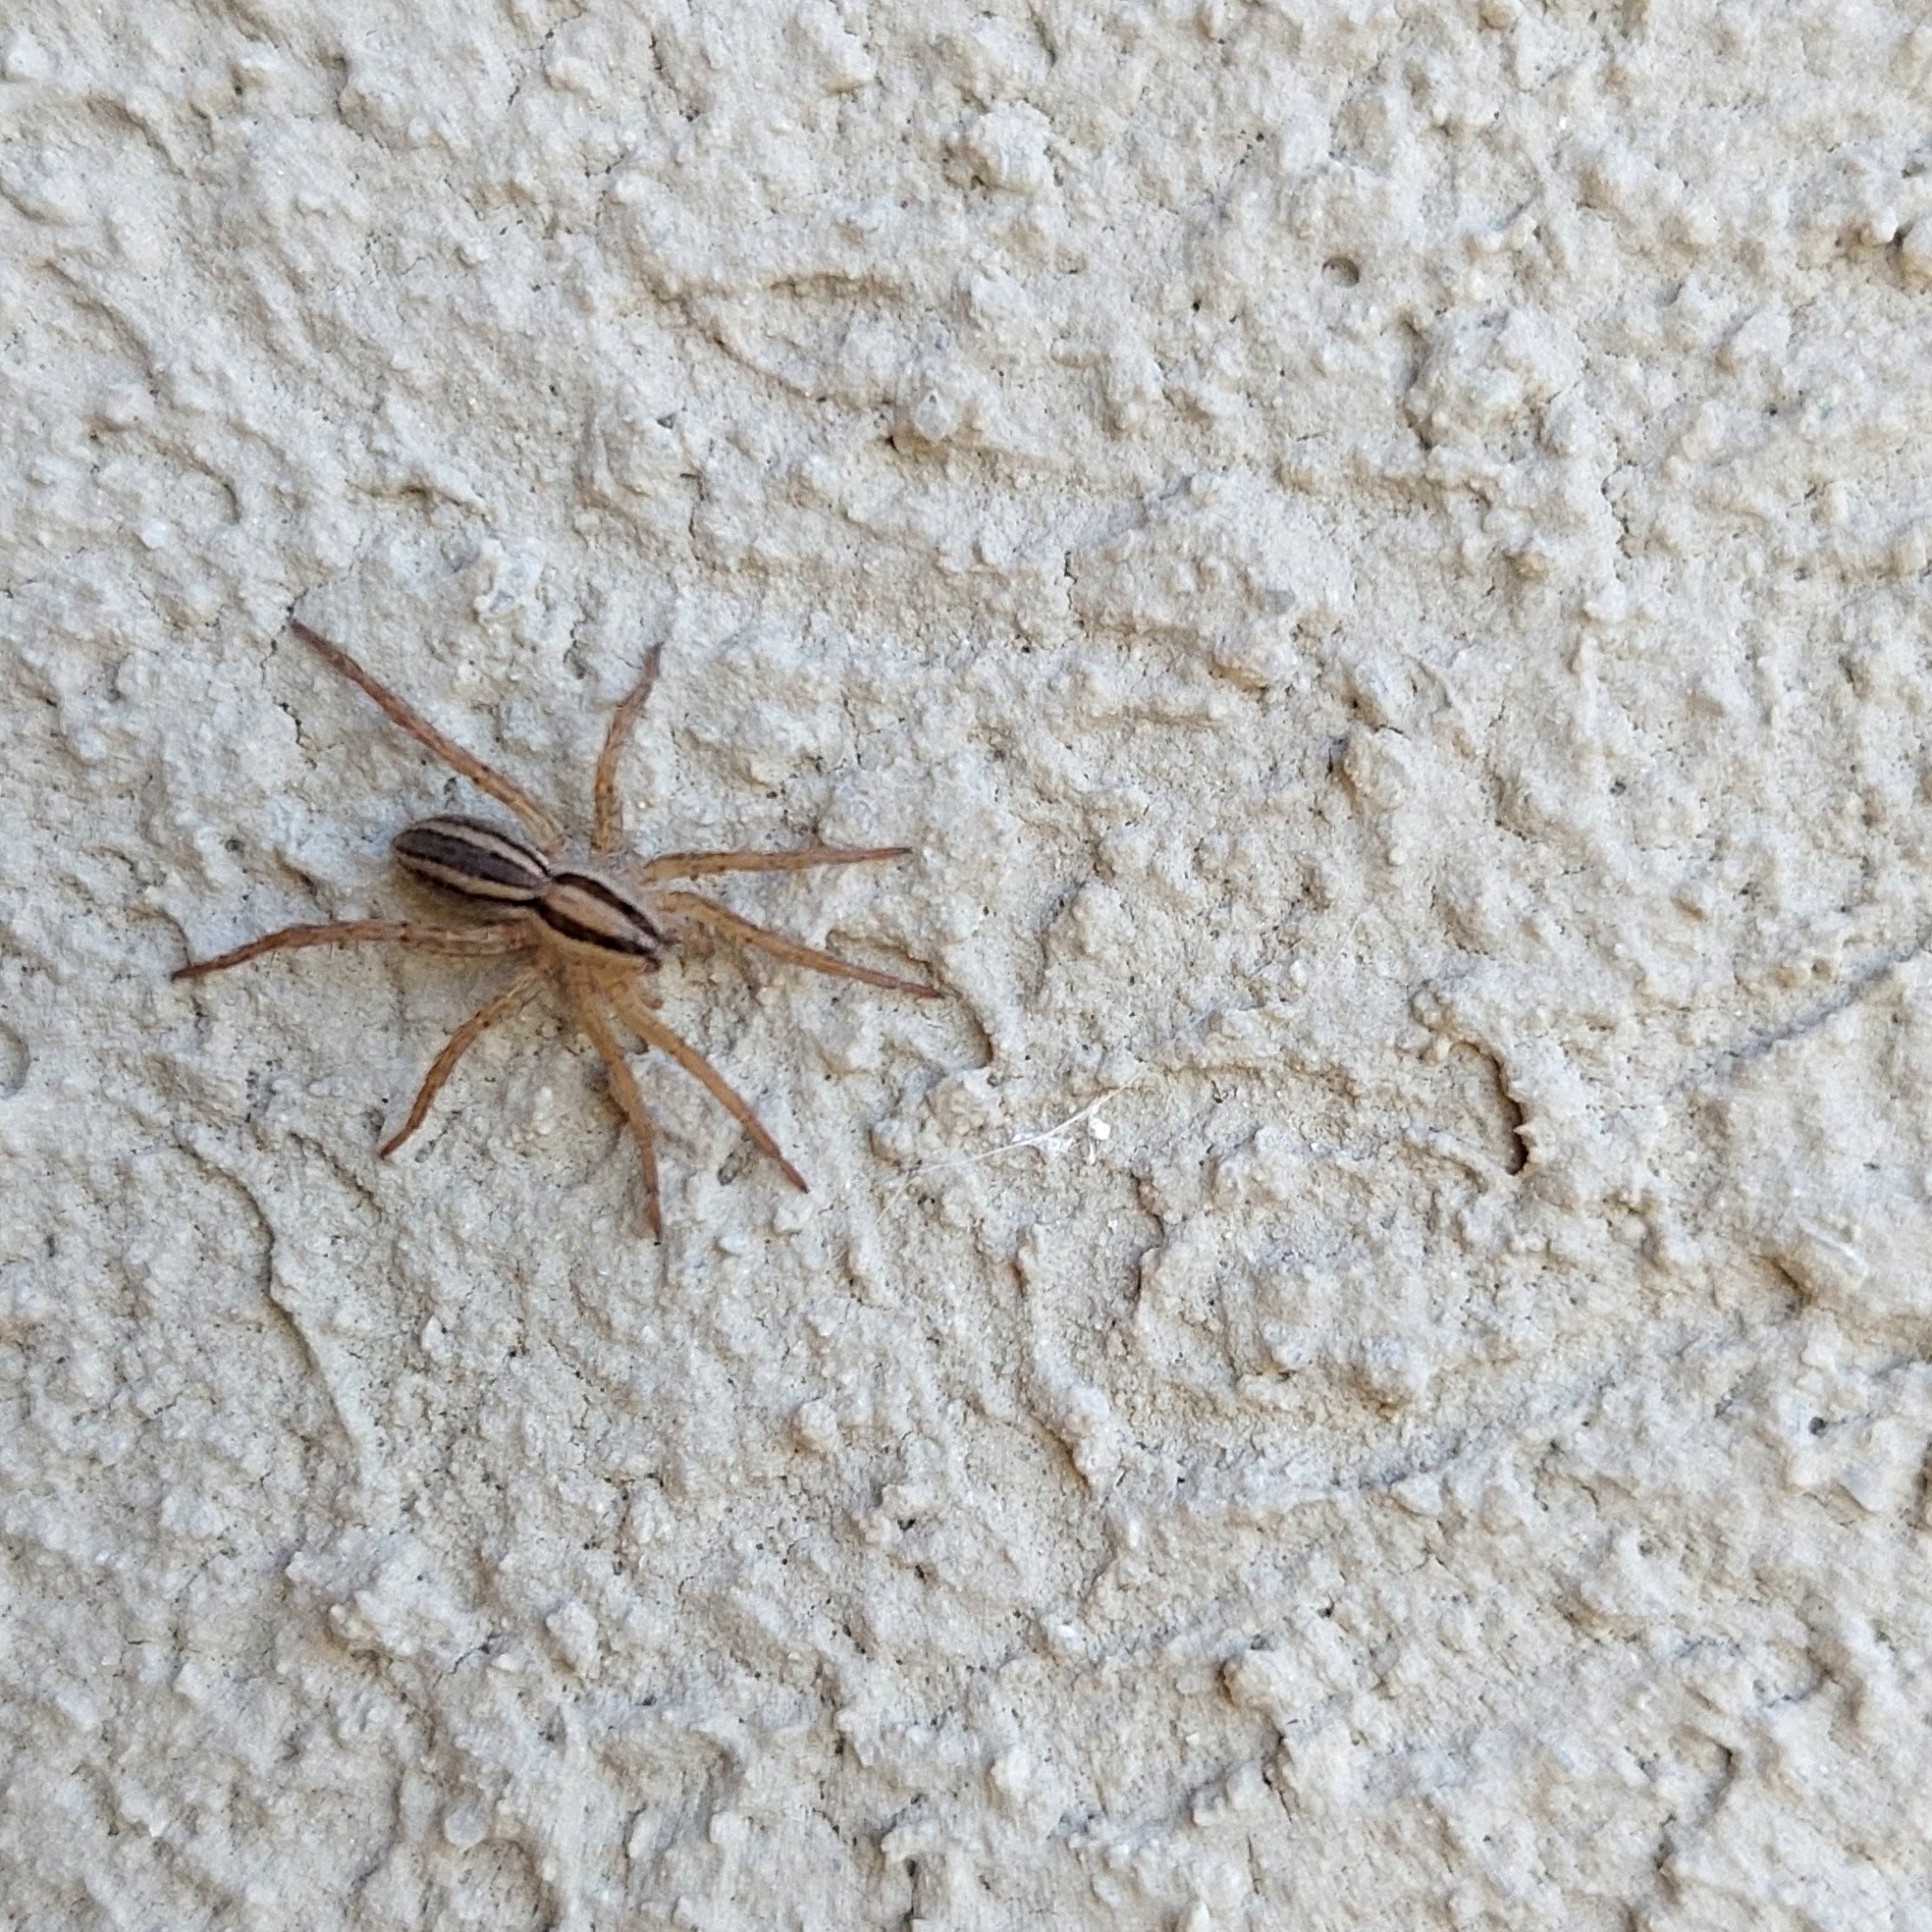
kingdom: Animalia
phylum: Arthropoda
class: Arachnida
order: Araneae
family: Lycosidae
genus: Hogna
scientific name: Hogna bivittata
